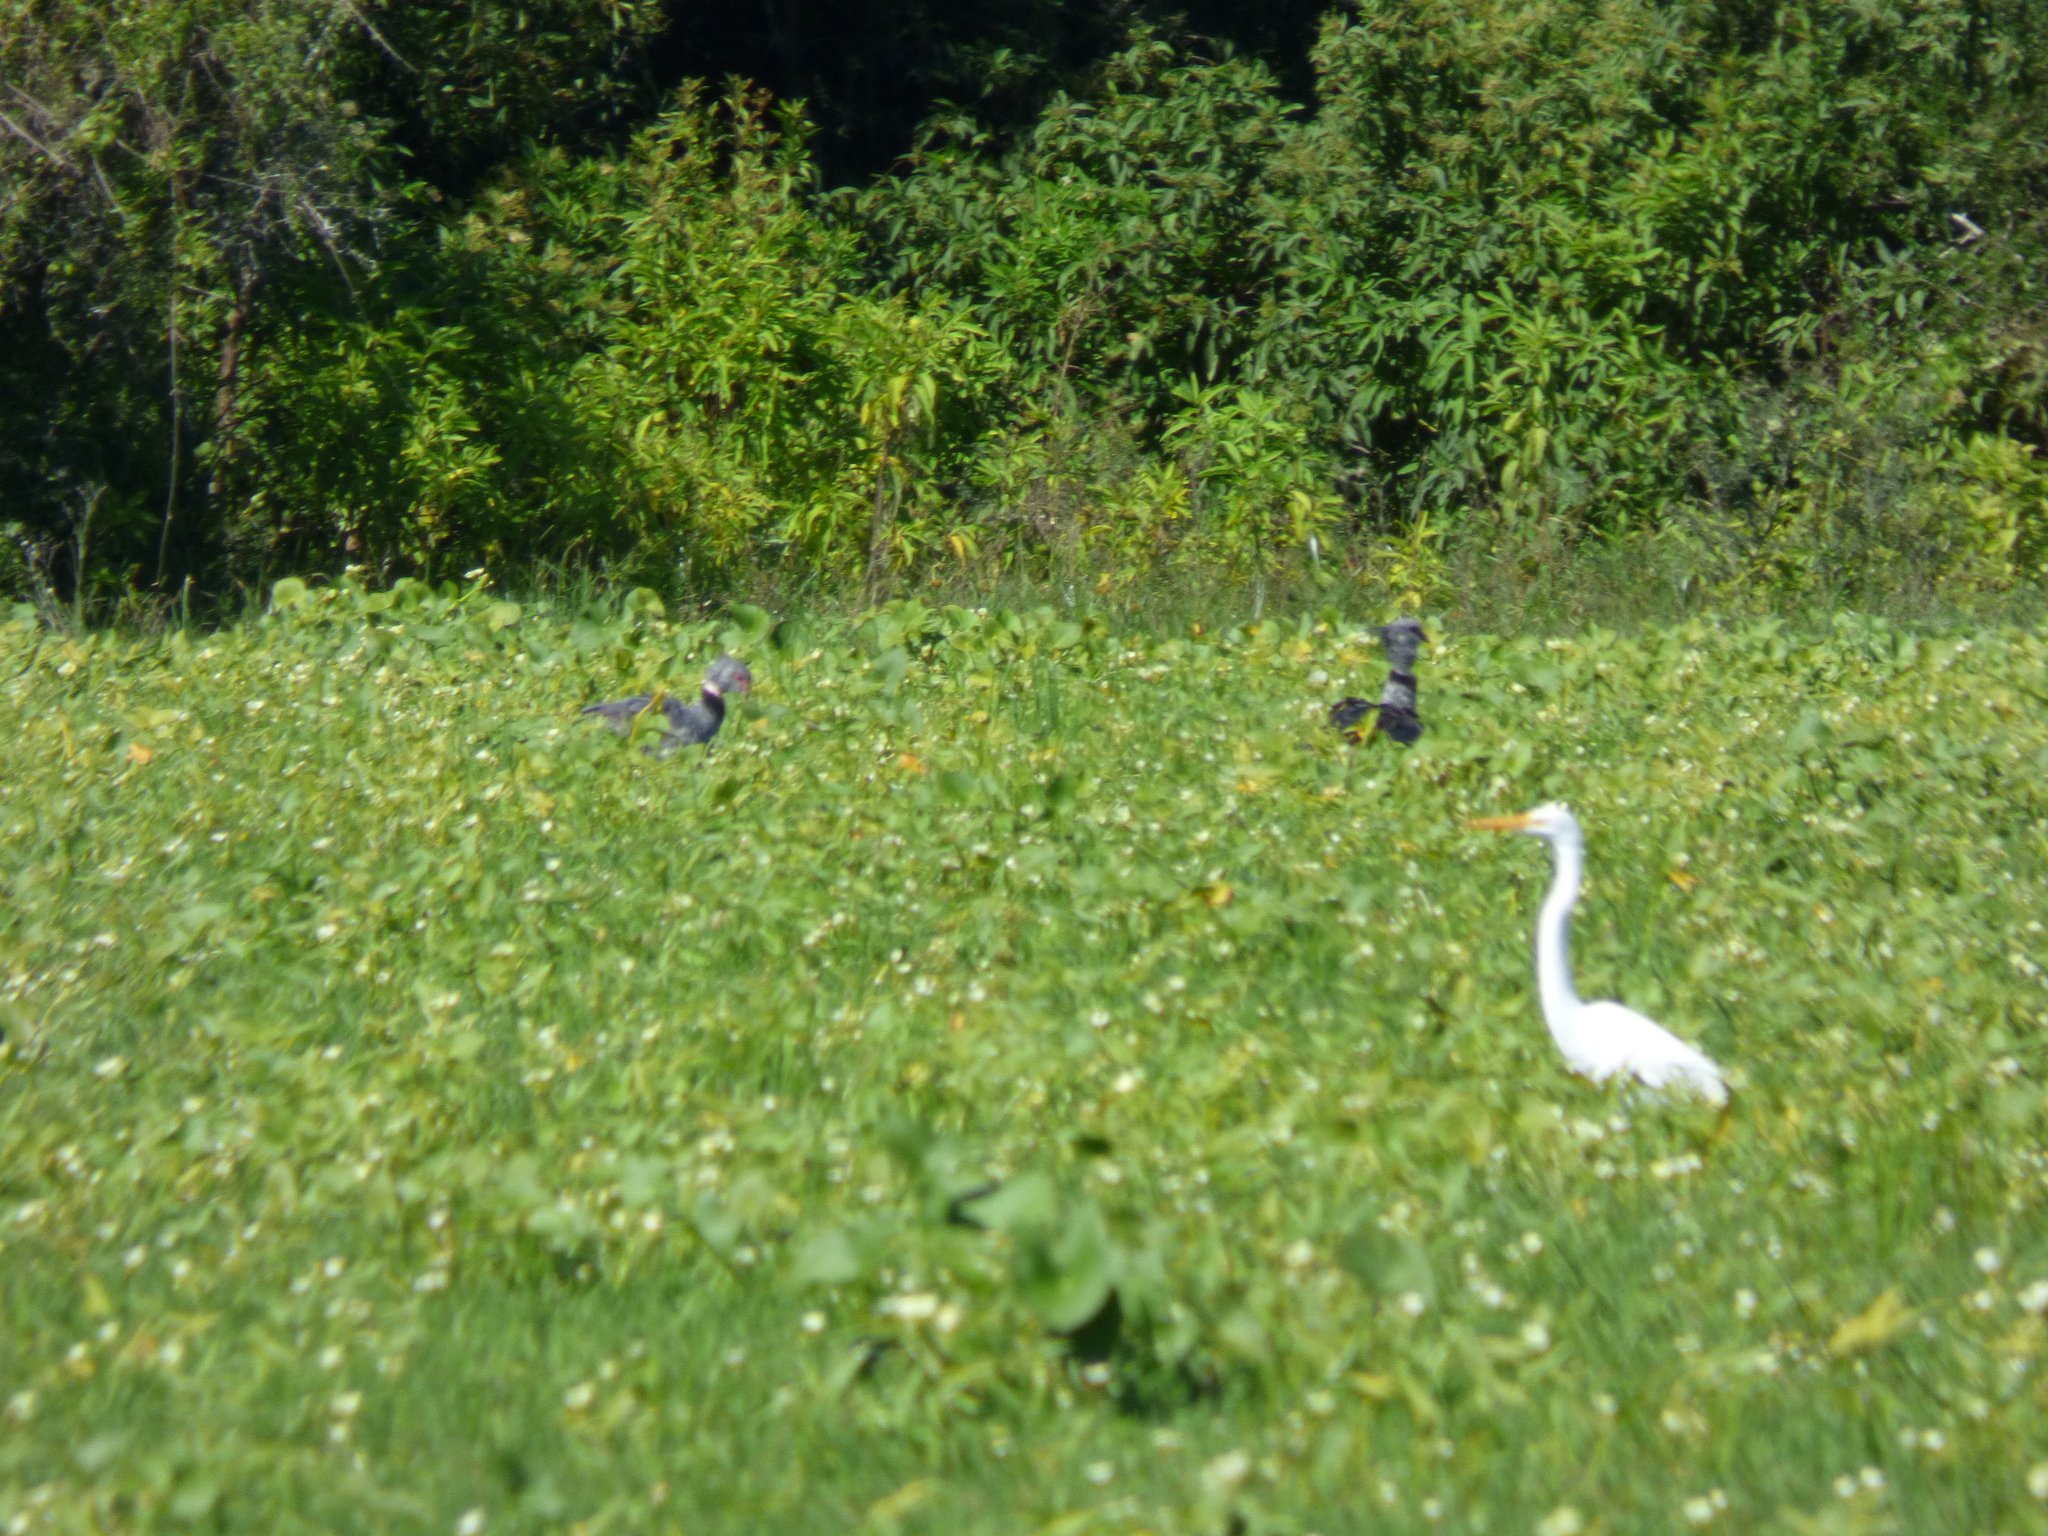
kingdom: Animalia
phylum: Chordata
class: Aves
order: Anseriformes
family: Anhimidae
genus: Chauna
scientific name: Chauna torquata
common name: Southern screamer
